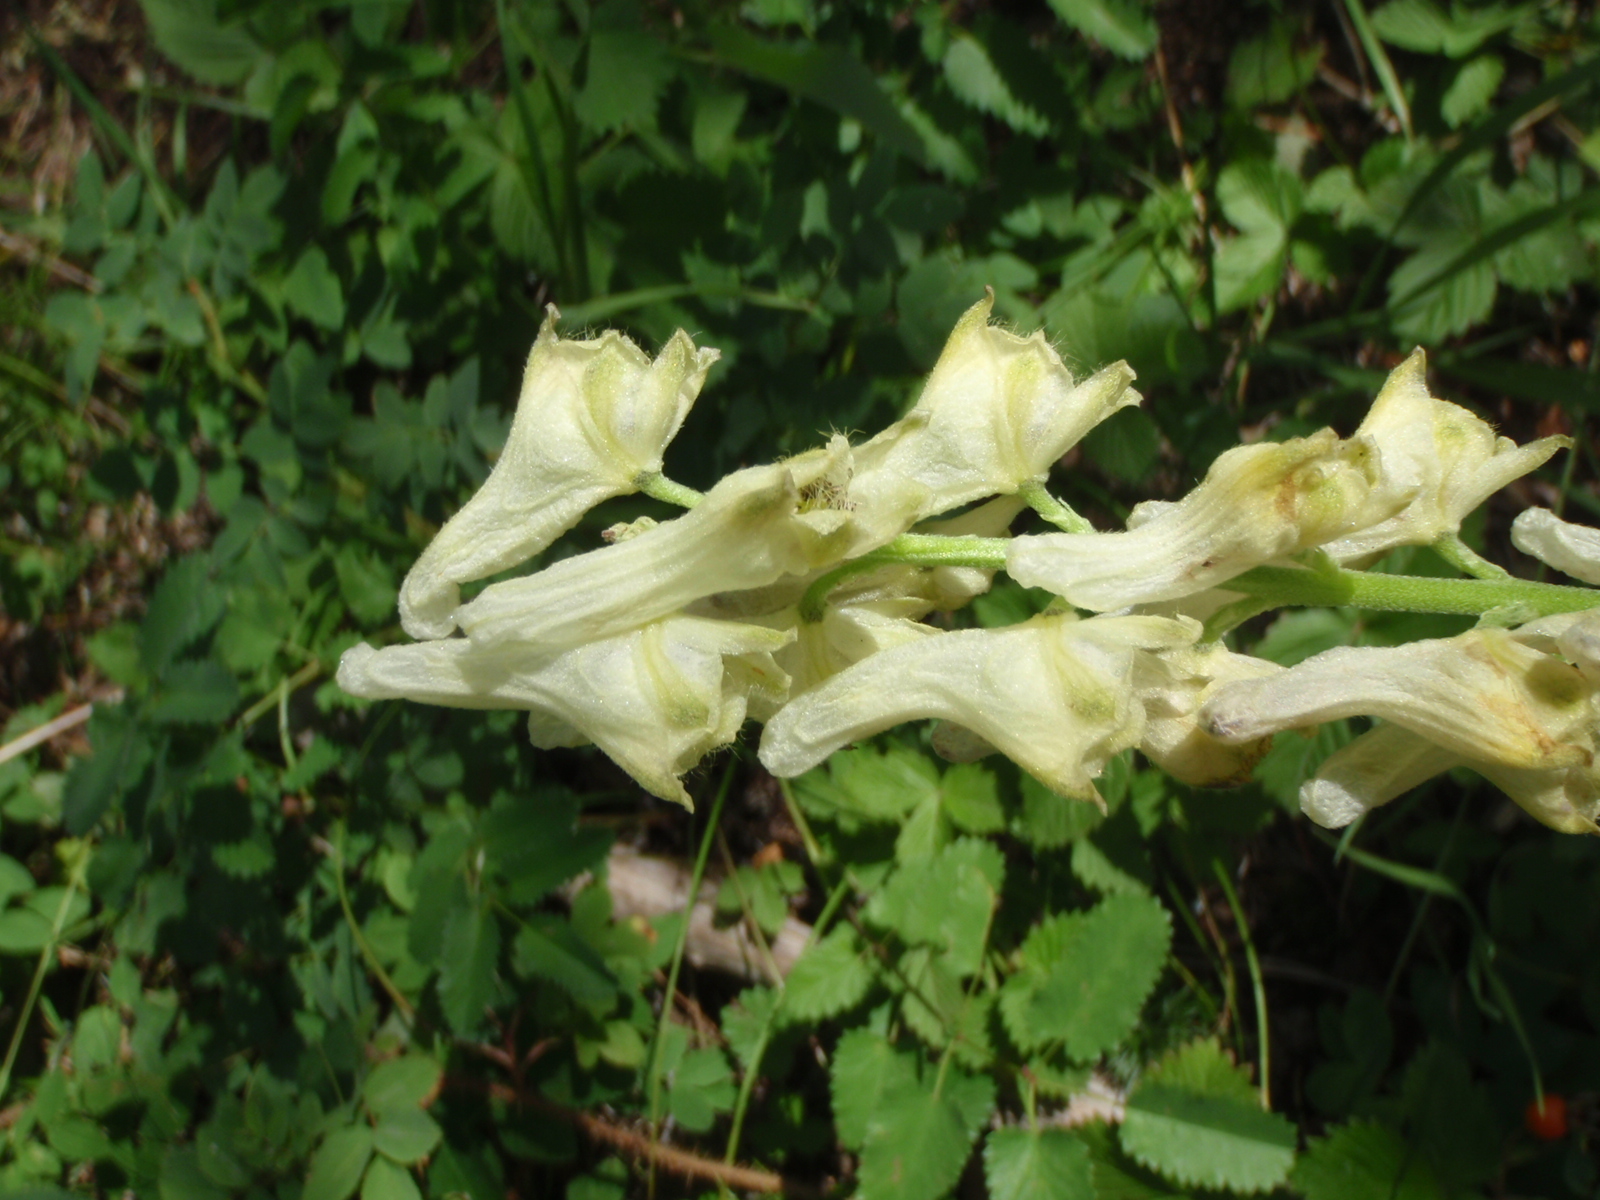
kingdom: Plantae
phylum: Tracheophyta
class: Magnoliopsida
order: Ranunculales
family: Ranunculaceae
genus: Aconitum
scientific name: Aconitum barbatum
